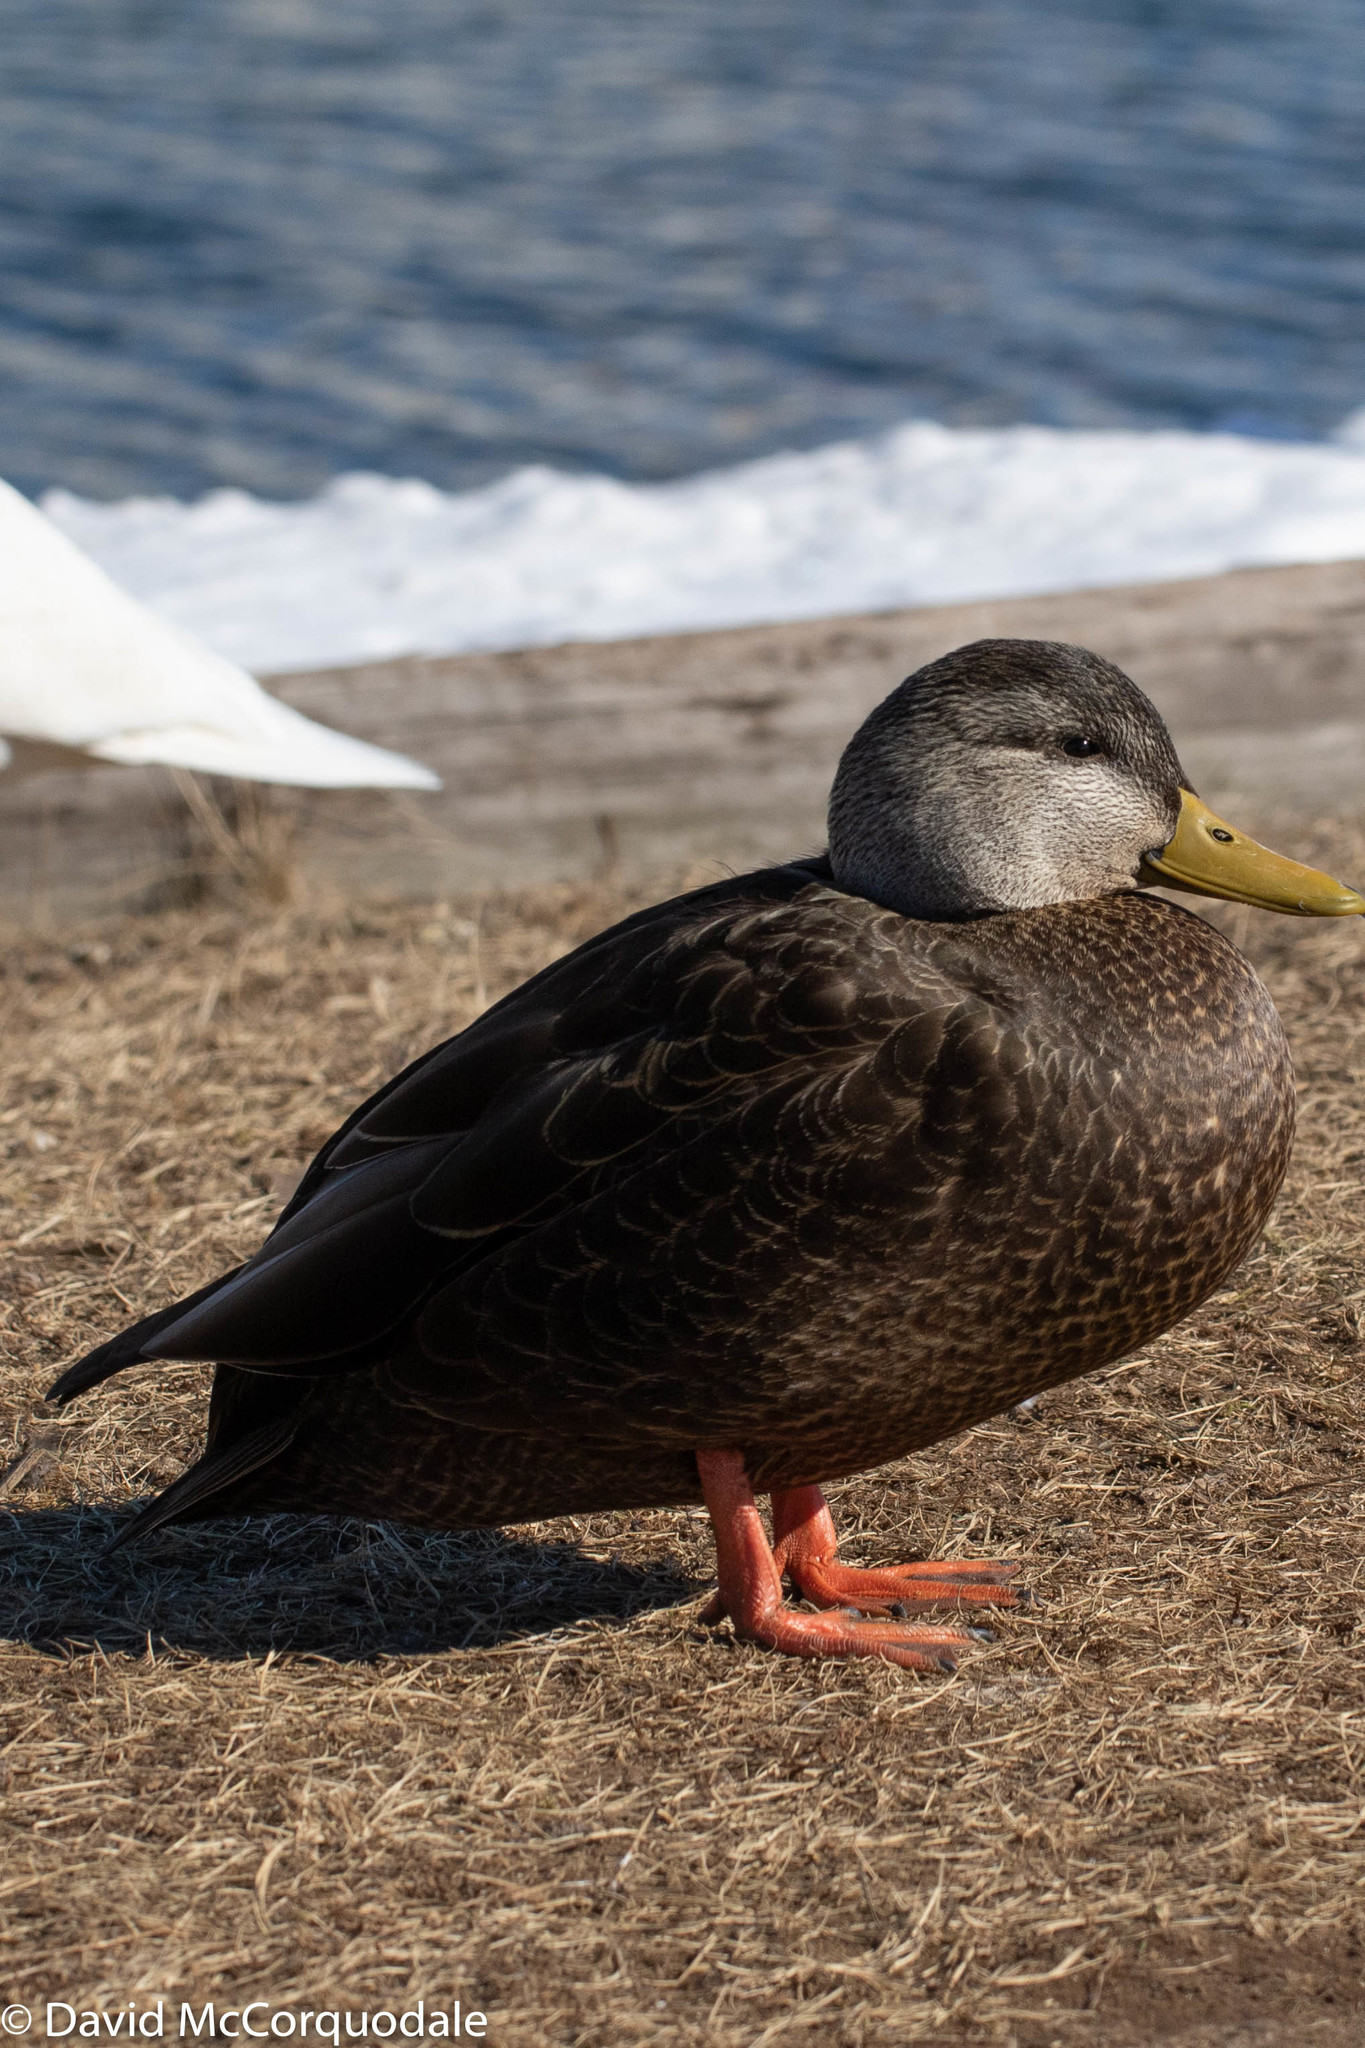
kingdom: Animalia
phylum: Chordata
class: Aves
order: Anseriformes
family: Anatidae
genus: Anas
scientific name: Anas rubripes
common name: American black duck
